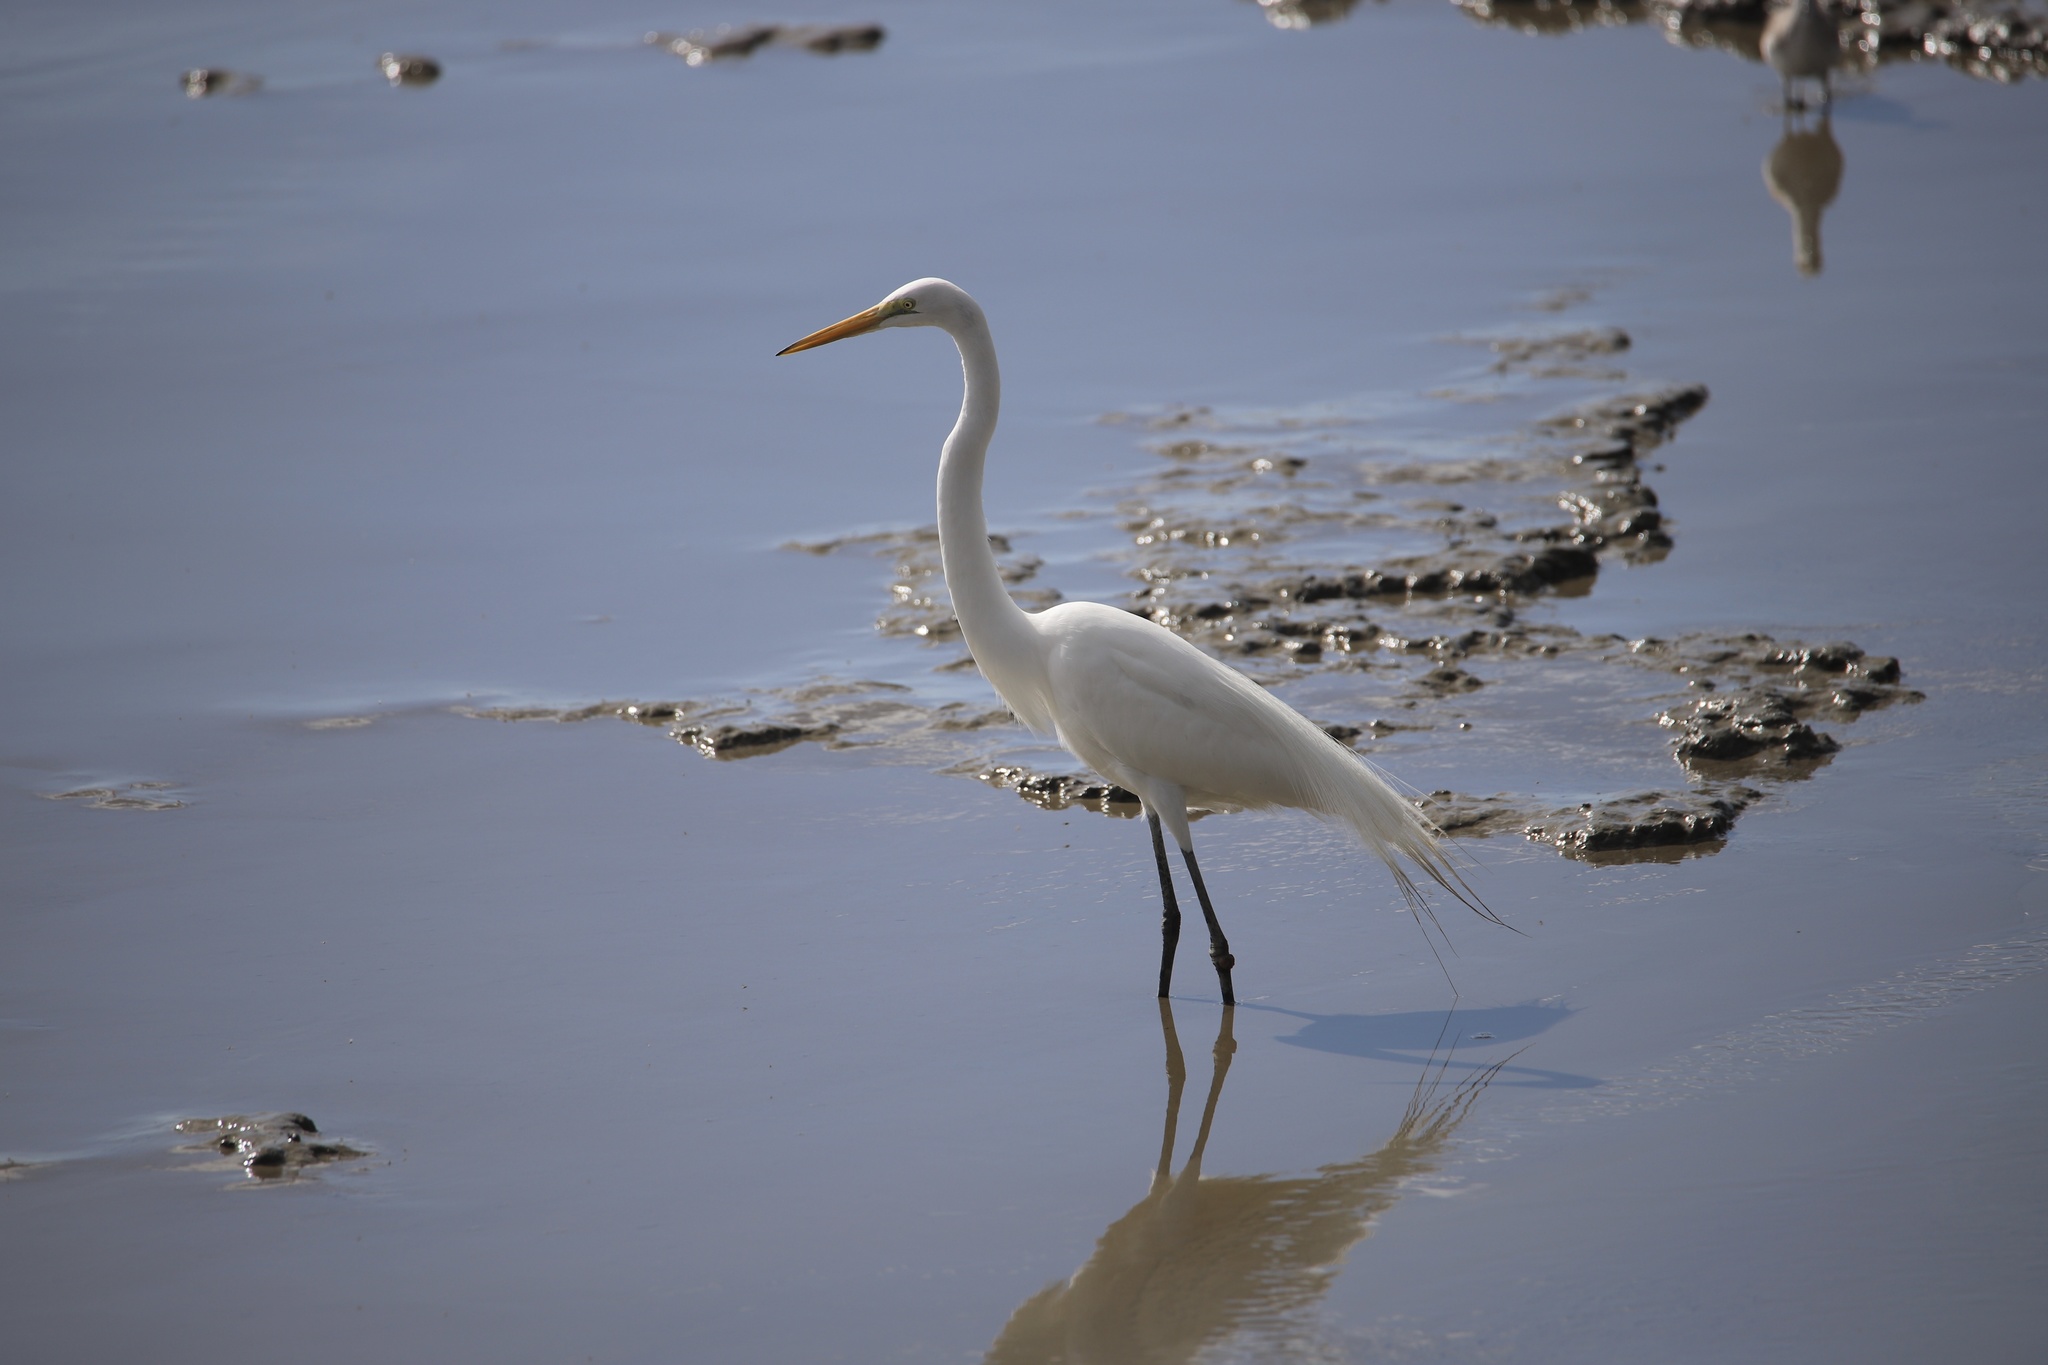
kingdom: Animalia
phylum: Chordata
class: Aves
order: Pelecaniformes
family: Ardeidae
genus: Ardea
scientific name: Ardea alba
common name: Great egret
